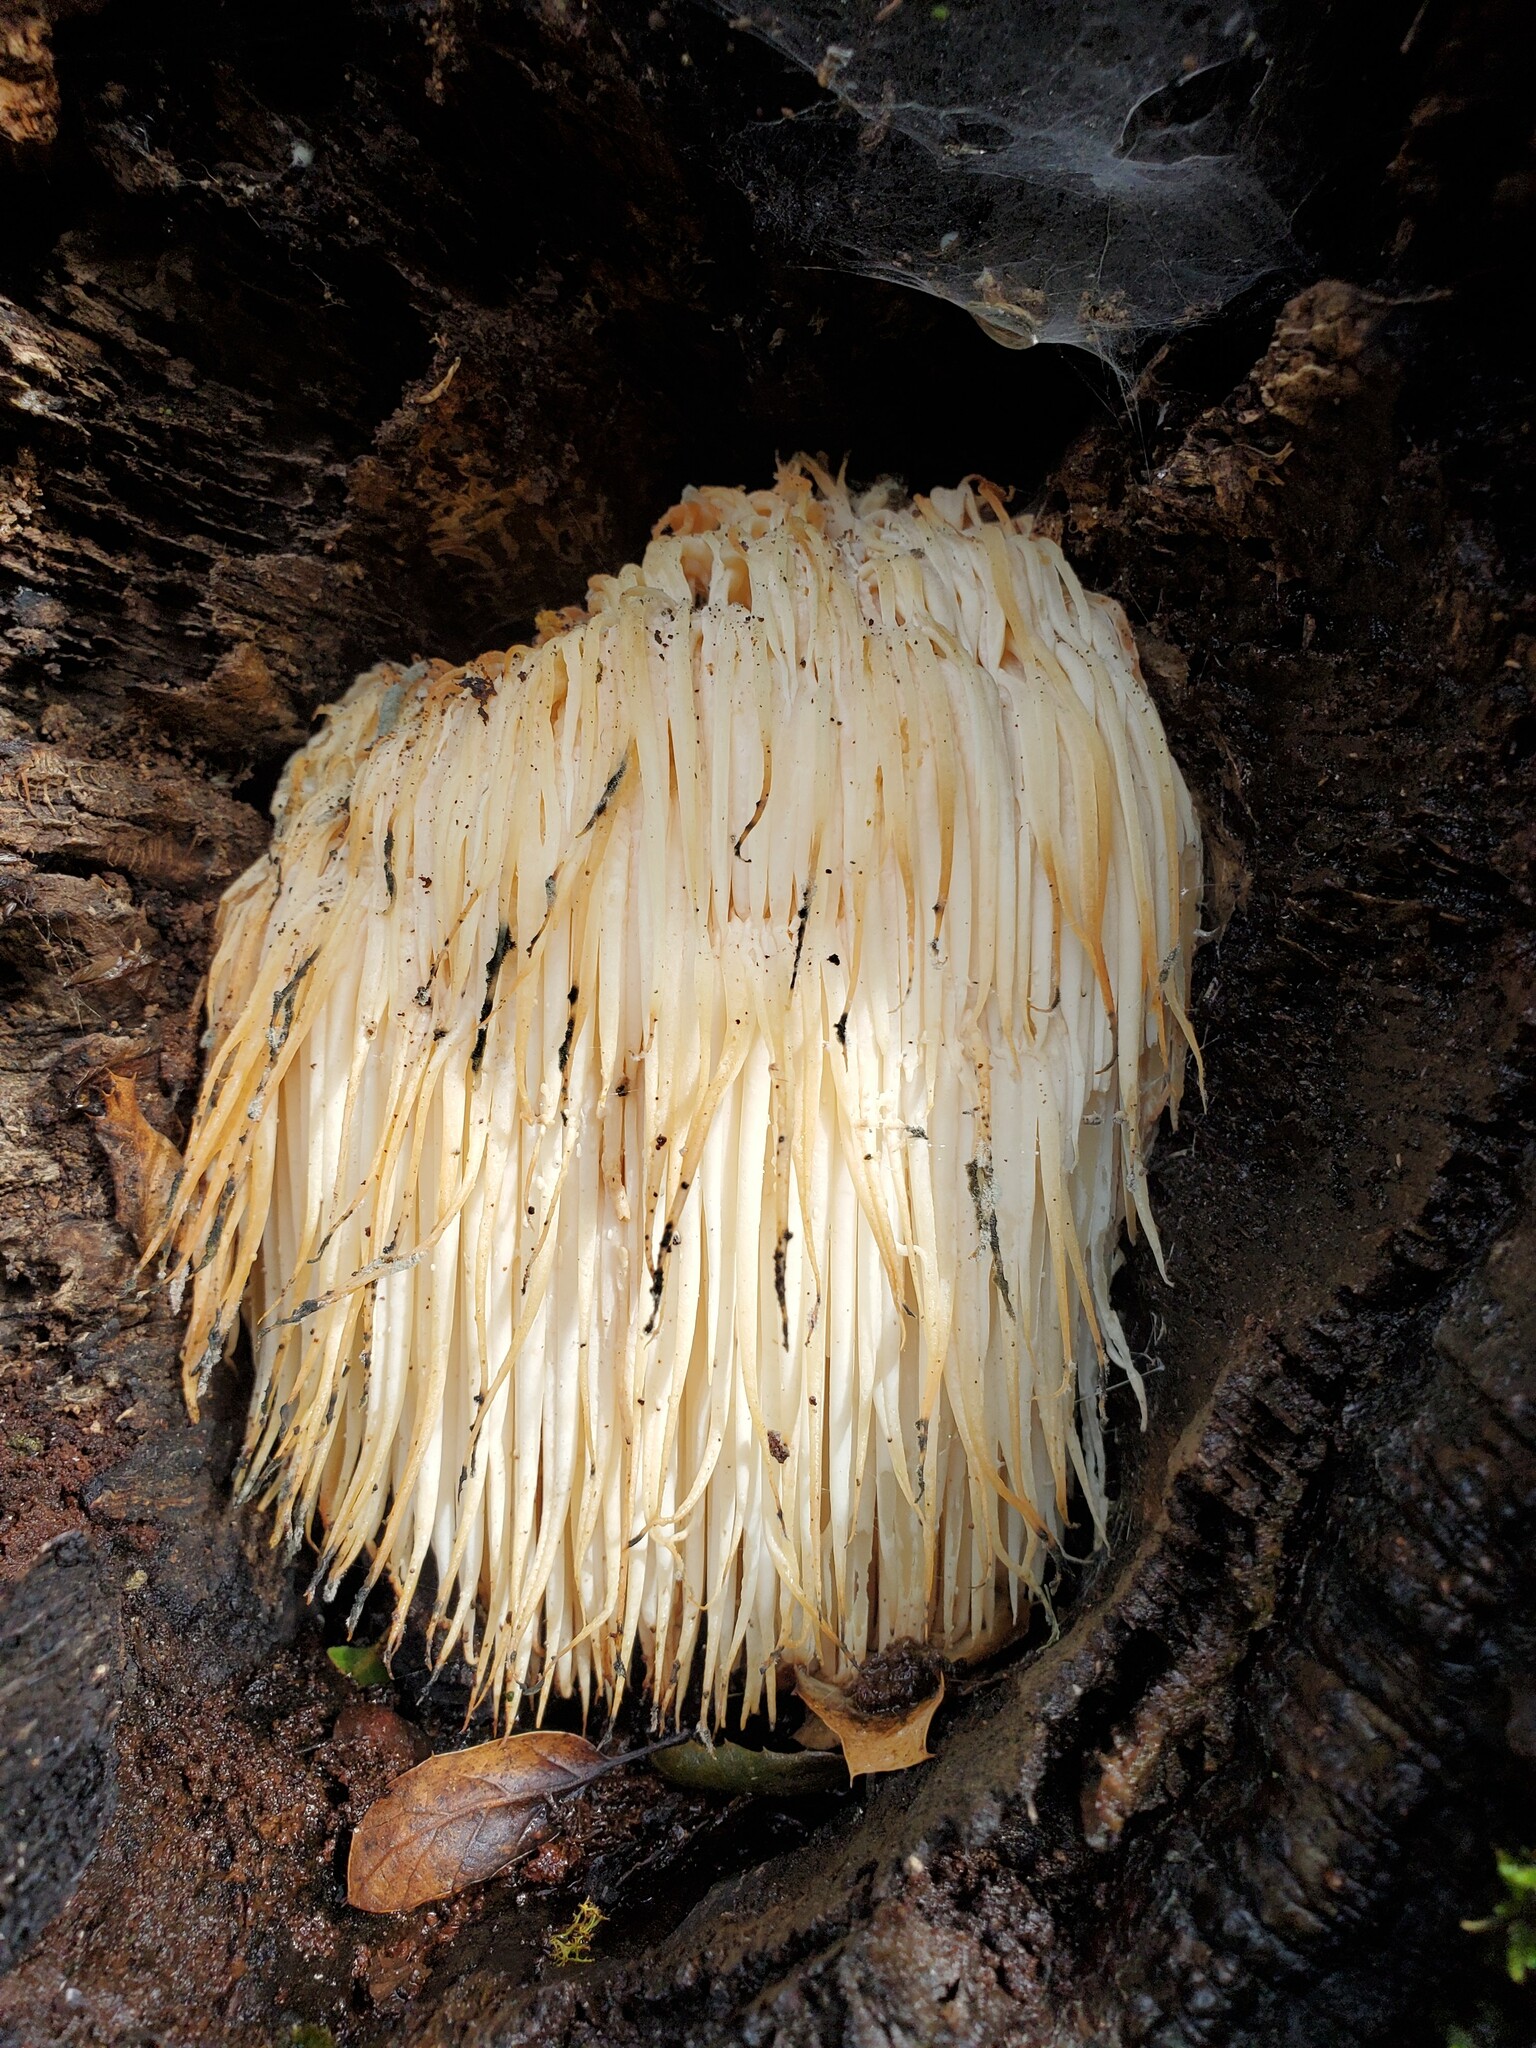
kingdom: Fungi
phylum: Basidiomycota
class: Agaricomycetes
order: Russulales
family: Hericiaceae
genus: Hericium
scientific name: Hericium erinaceus
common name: Bearded tooth
